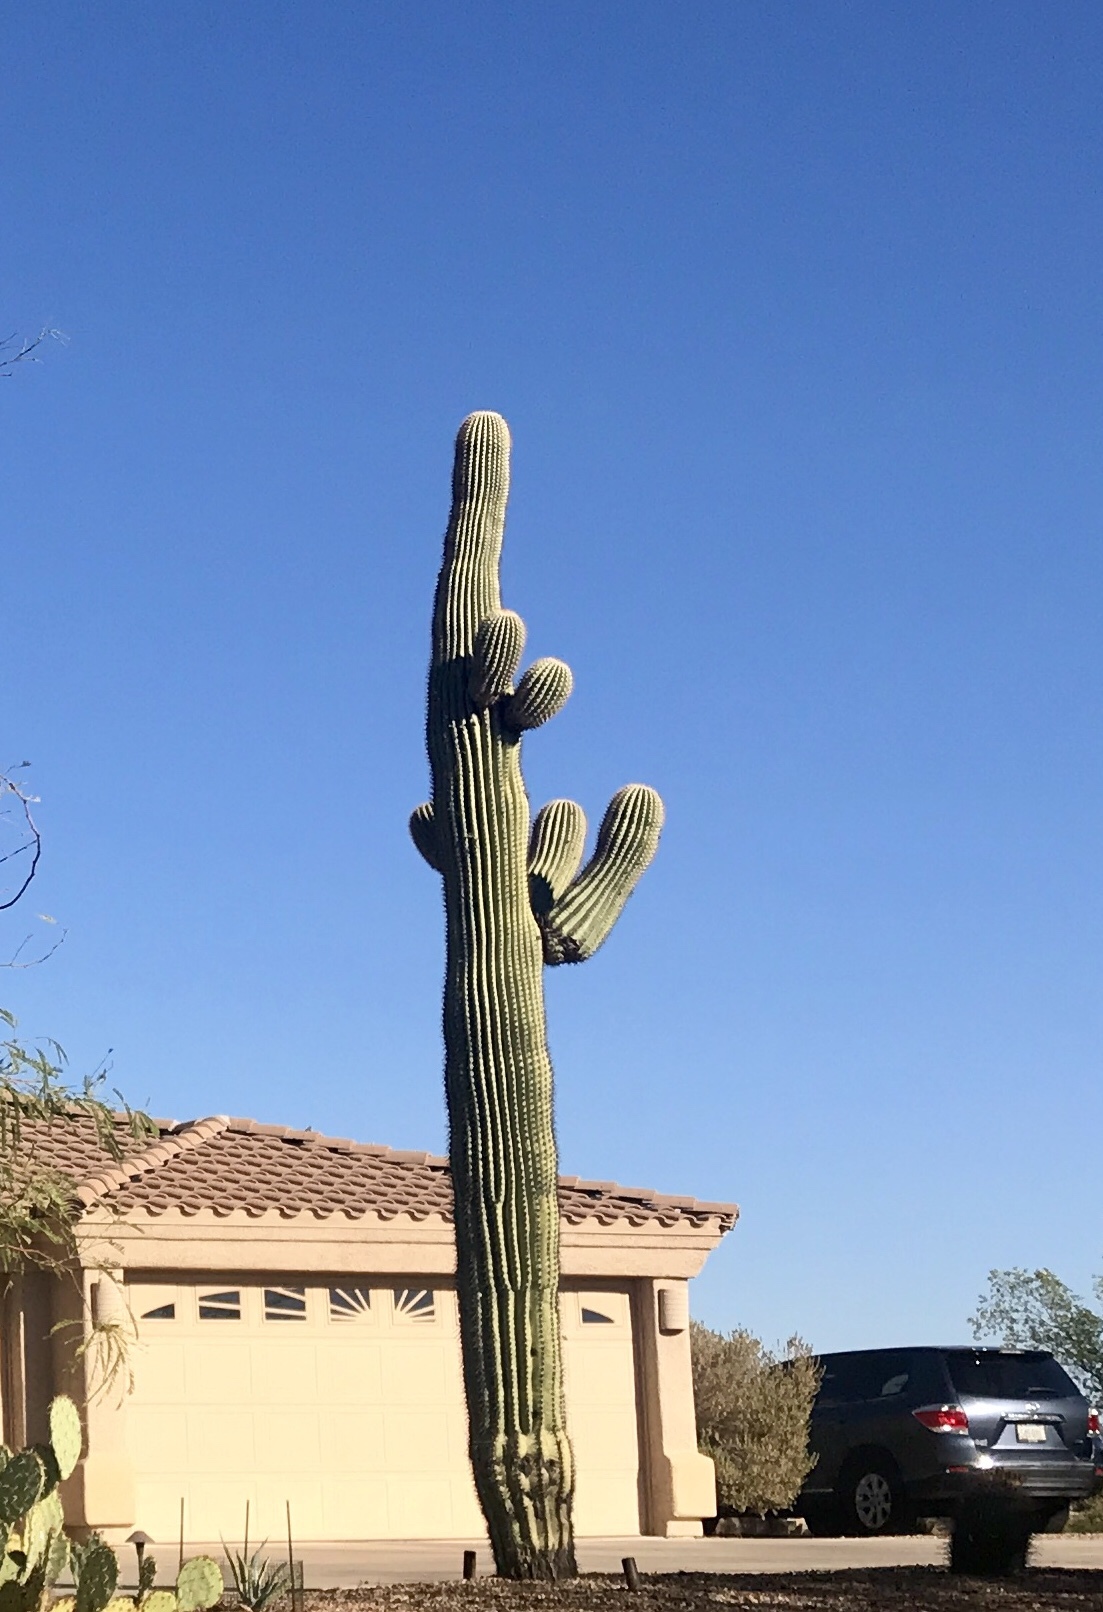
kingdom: Plantae
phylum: Tracheophyta
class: Magnoliopsida
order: Caryophyllales
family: Cactaceae
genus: Carnegiea
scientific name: Carnegiea gigantea
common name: Saguaro
